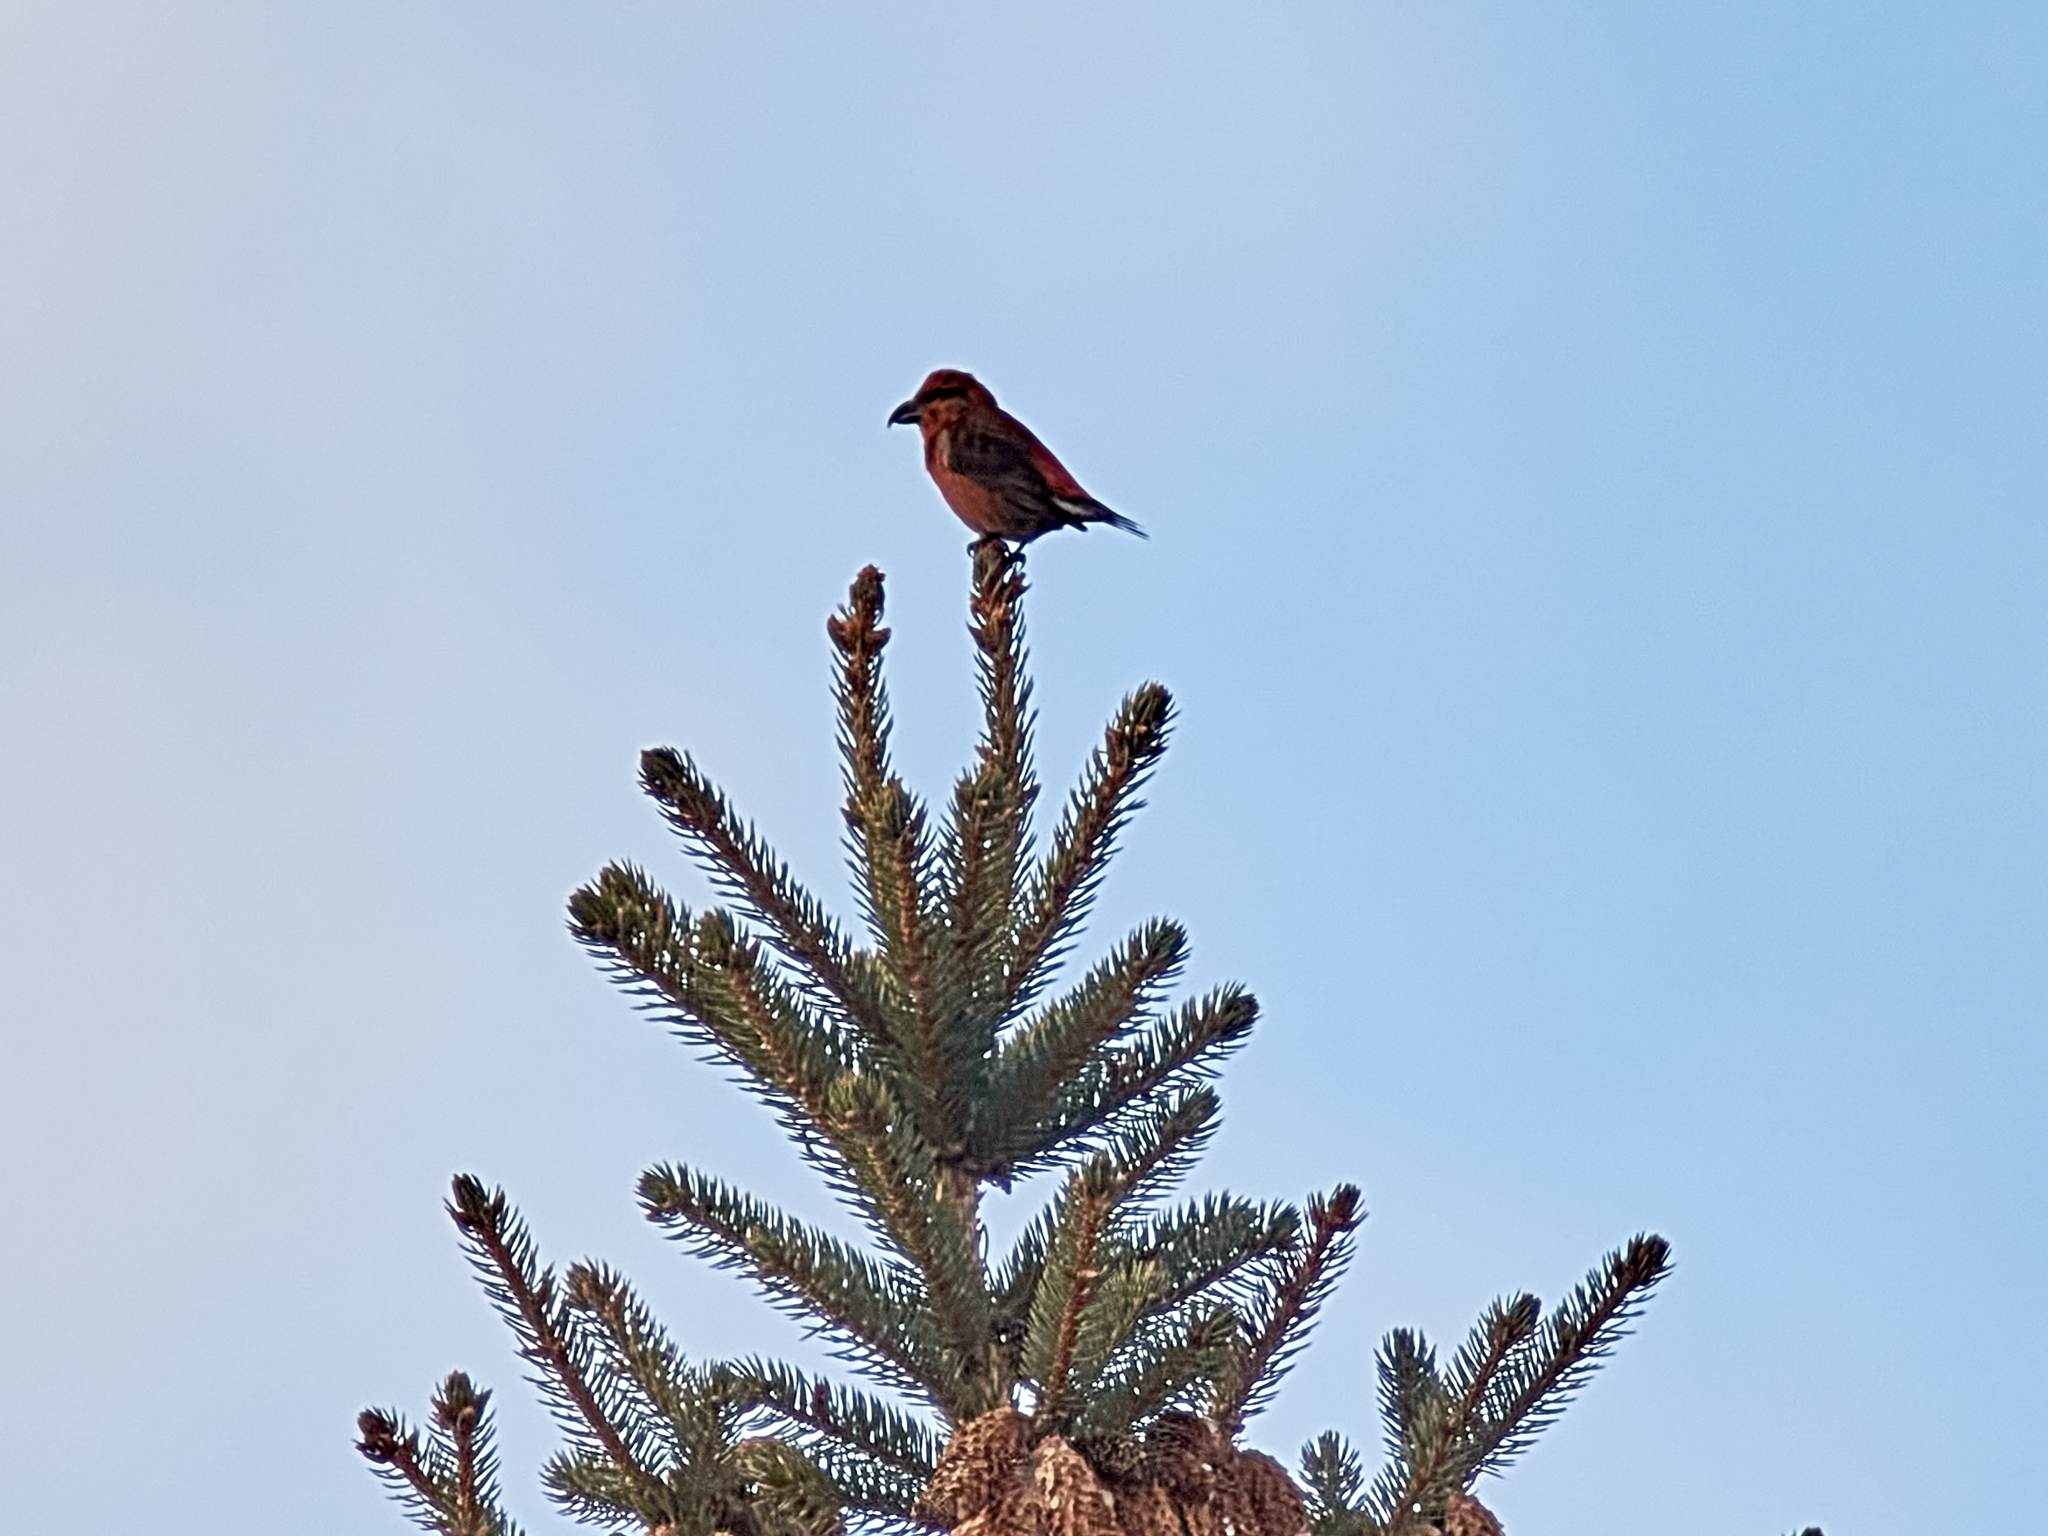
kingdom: Animalia
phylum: Chordata
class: Aves
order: Passeriformes
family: Fringillidae
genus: Loxia
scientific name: Loxia curvirostra
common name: Red crossbill
